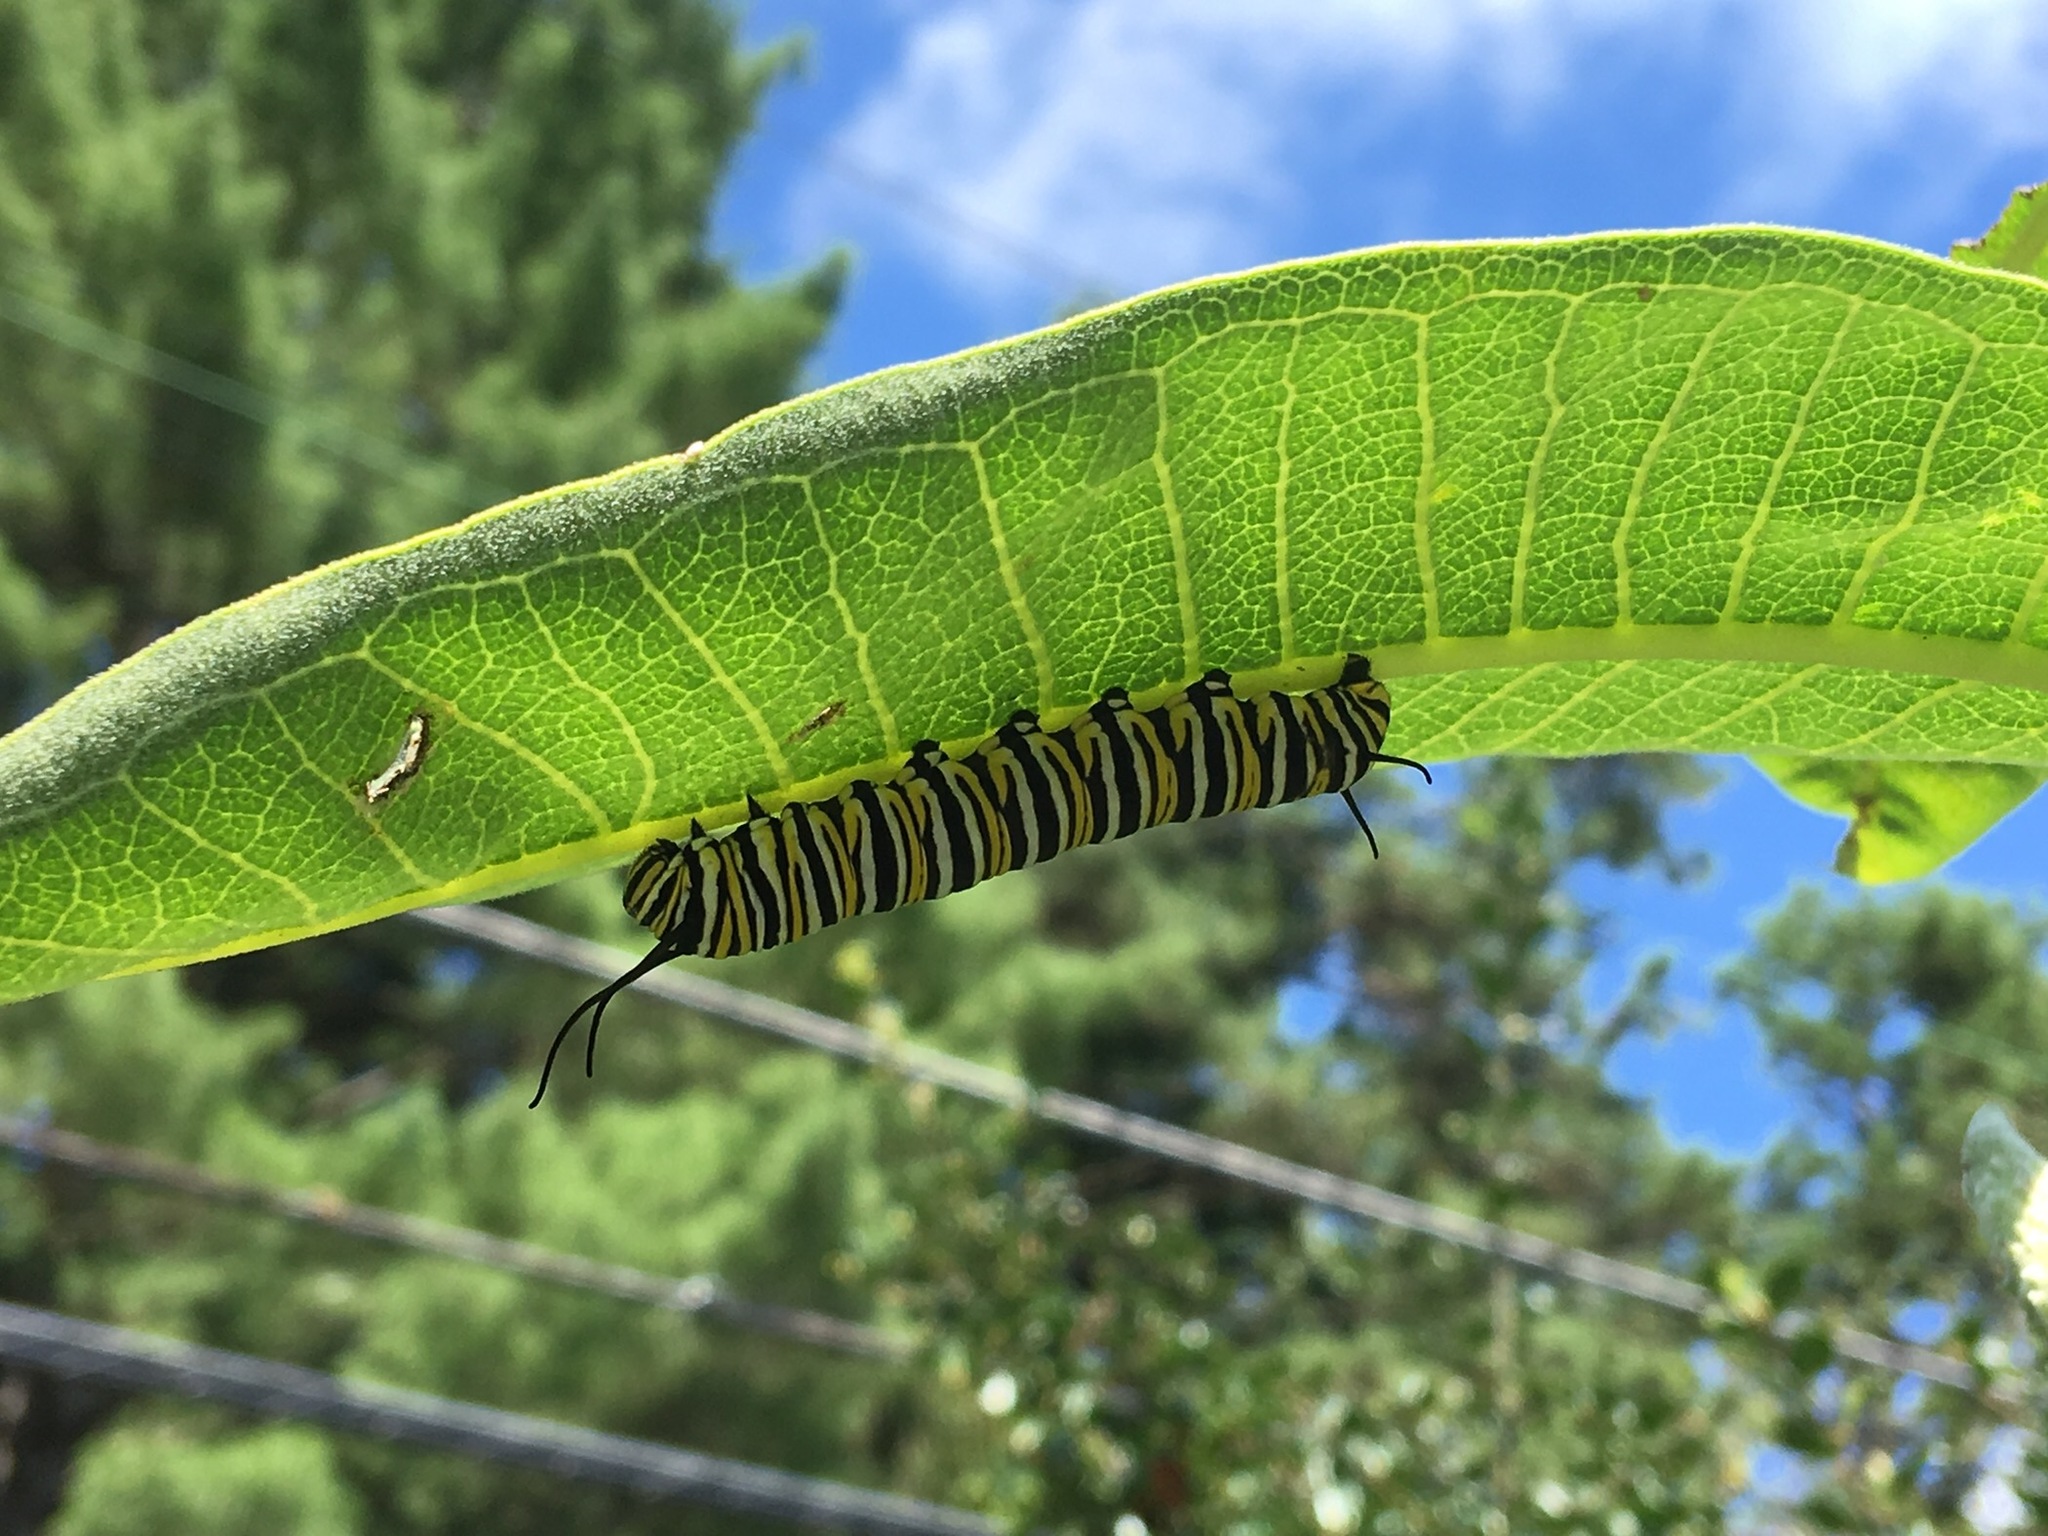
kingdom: Animalia
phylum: Arthropoda
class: Insecta
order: Lepidoptera
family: Nymphalidae
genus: Danaus
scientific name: Danaus plexippus
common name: Monarch
